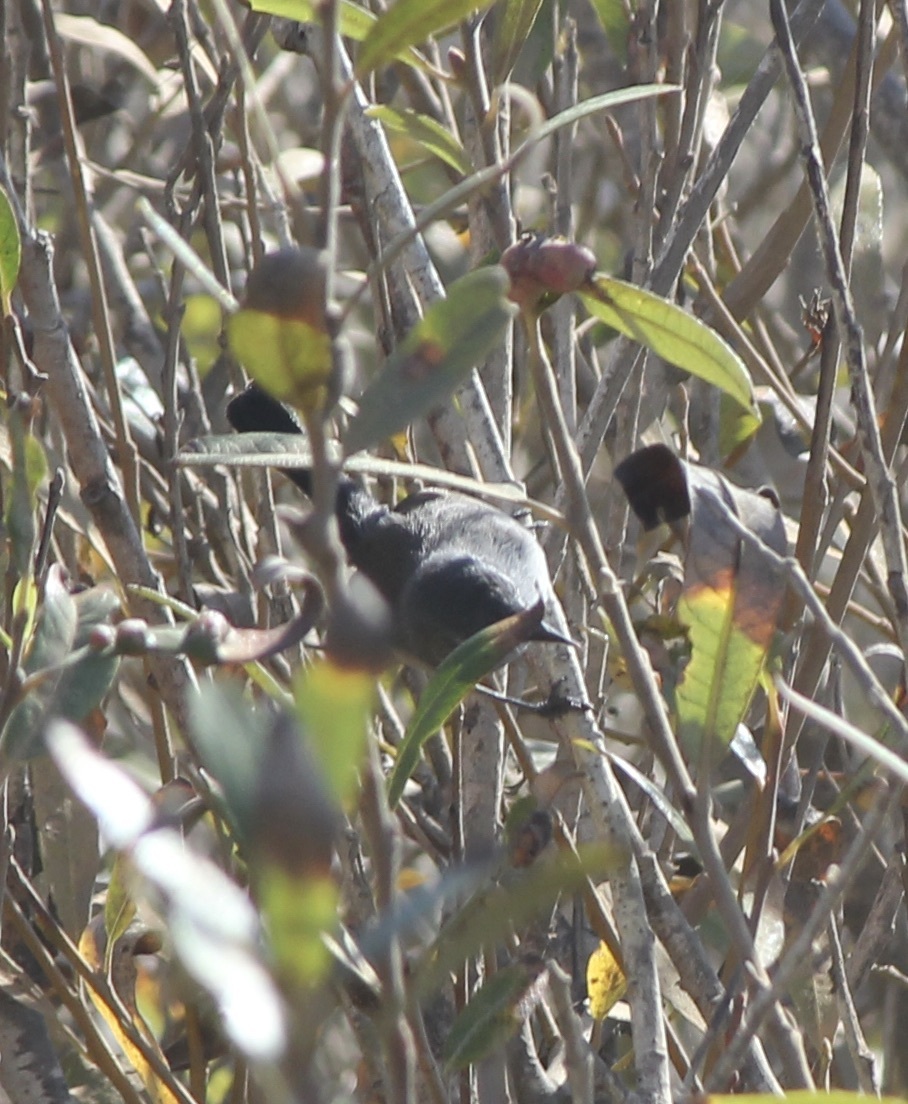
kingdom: Animalia
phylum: Chordata
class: Aves
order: Passeriformes
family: Polioptilidae
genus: Polioptila
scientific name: Polioptila californica
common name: California gnatcatcher
